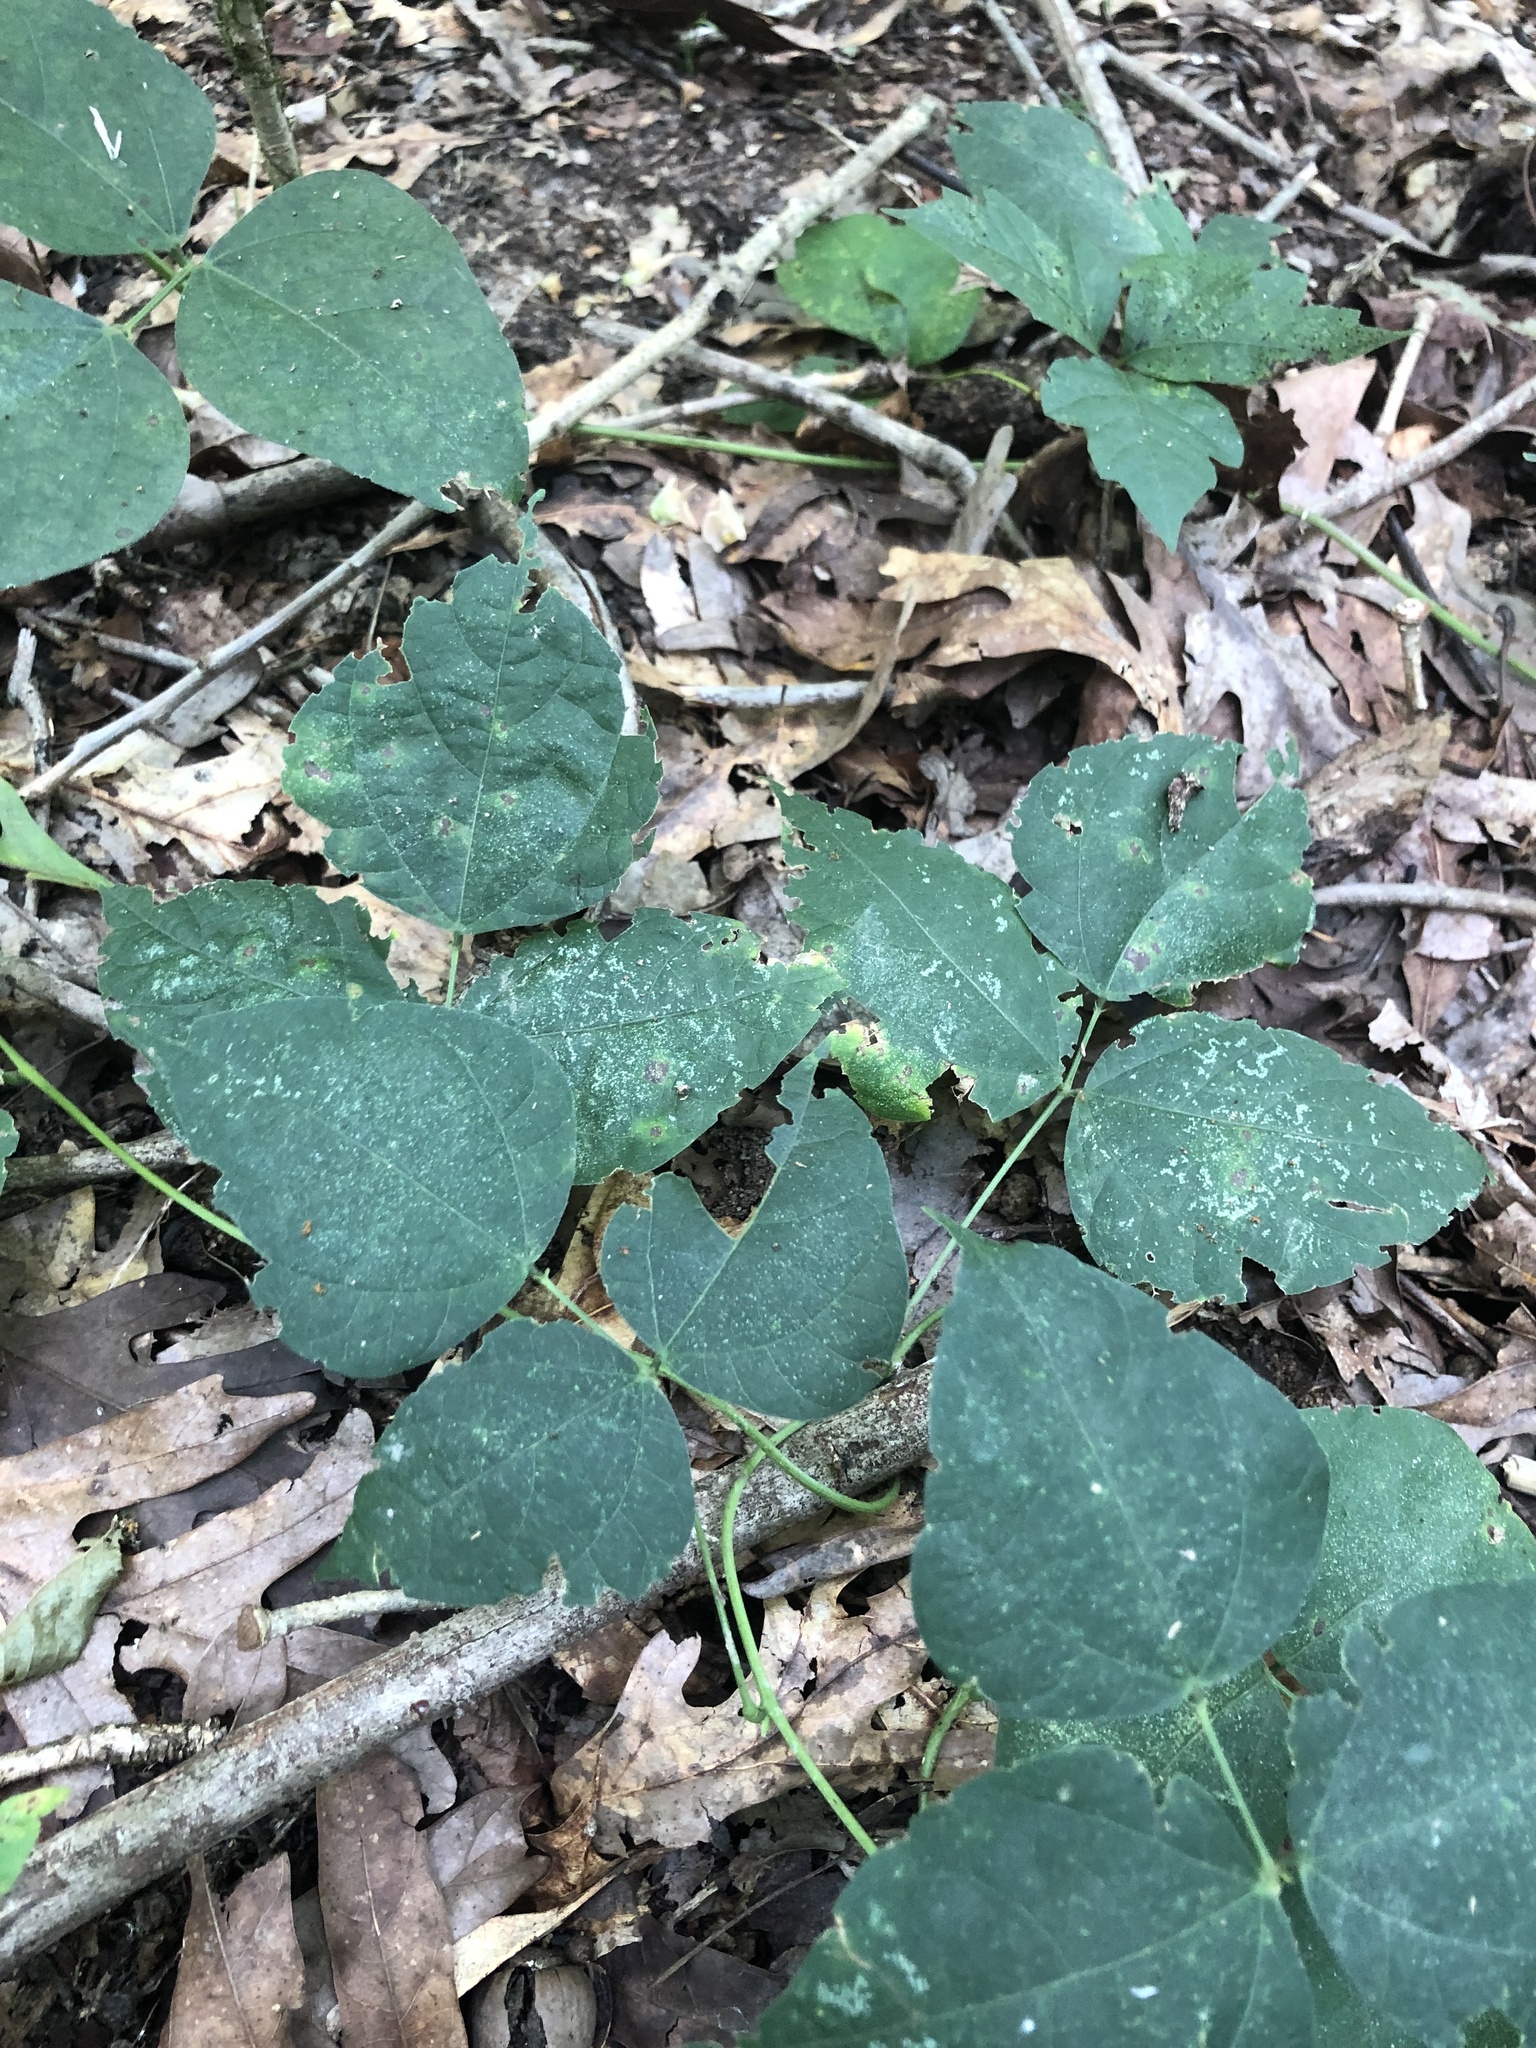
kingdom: Plantae
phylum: Tracheophyta
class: Magnoliopsida
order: Fabales
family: Fabaceae
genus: Phaseolus
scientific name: Phaseolus polystachios
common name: Thicket bean
